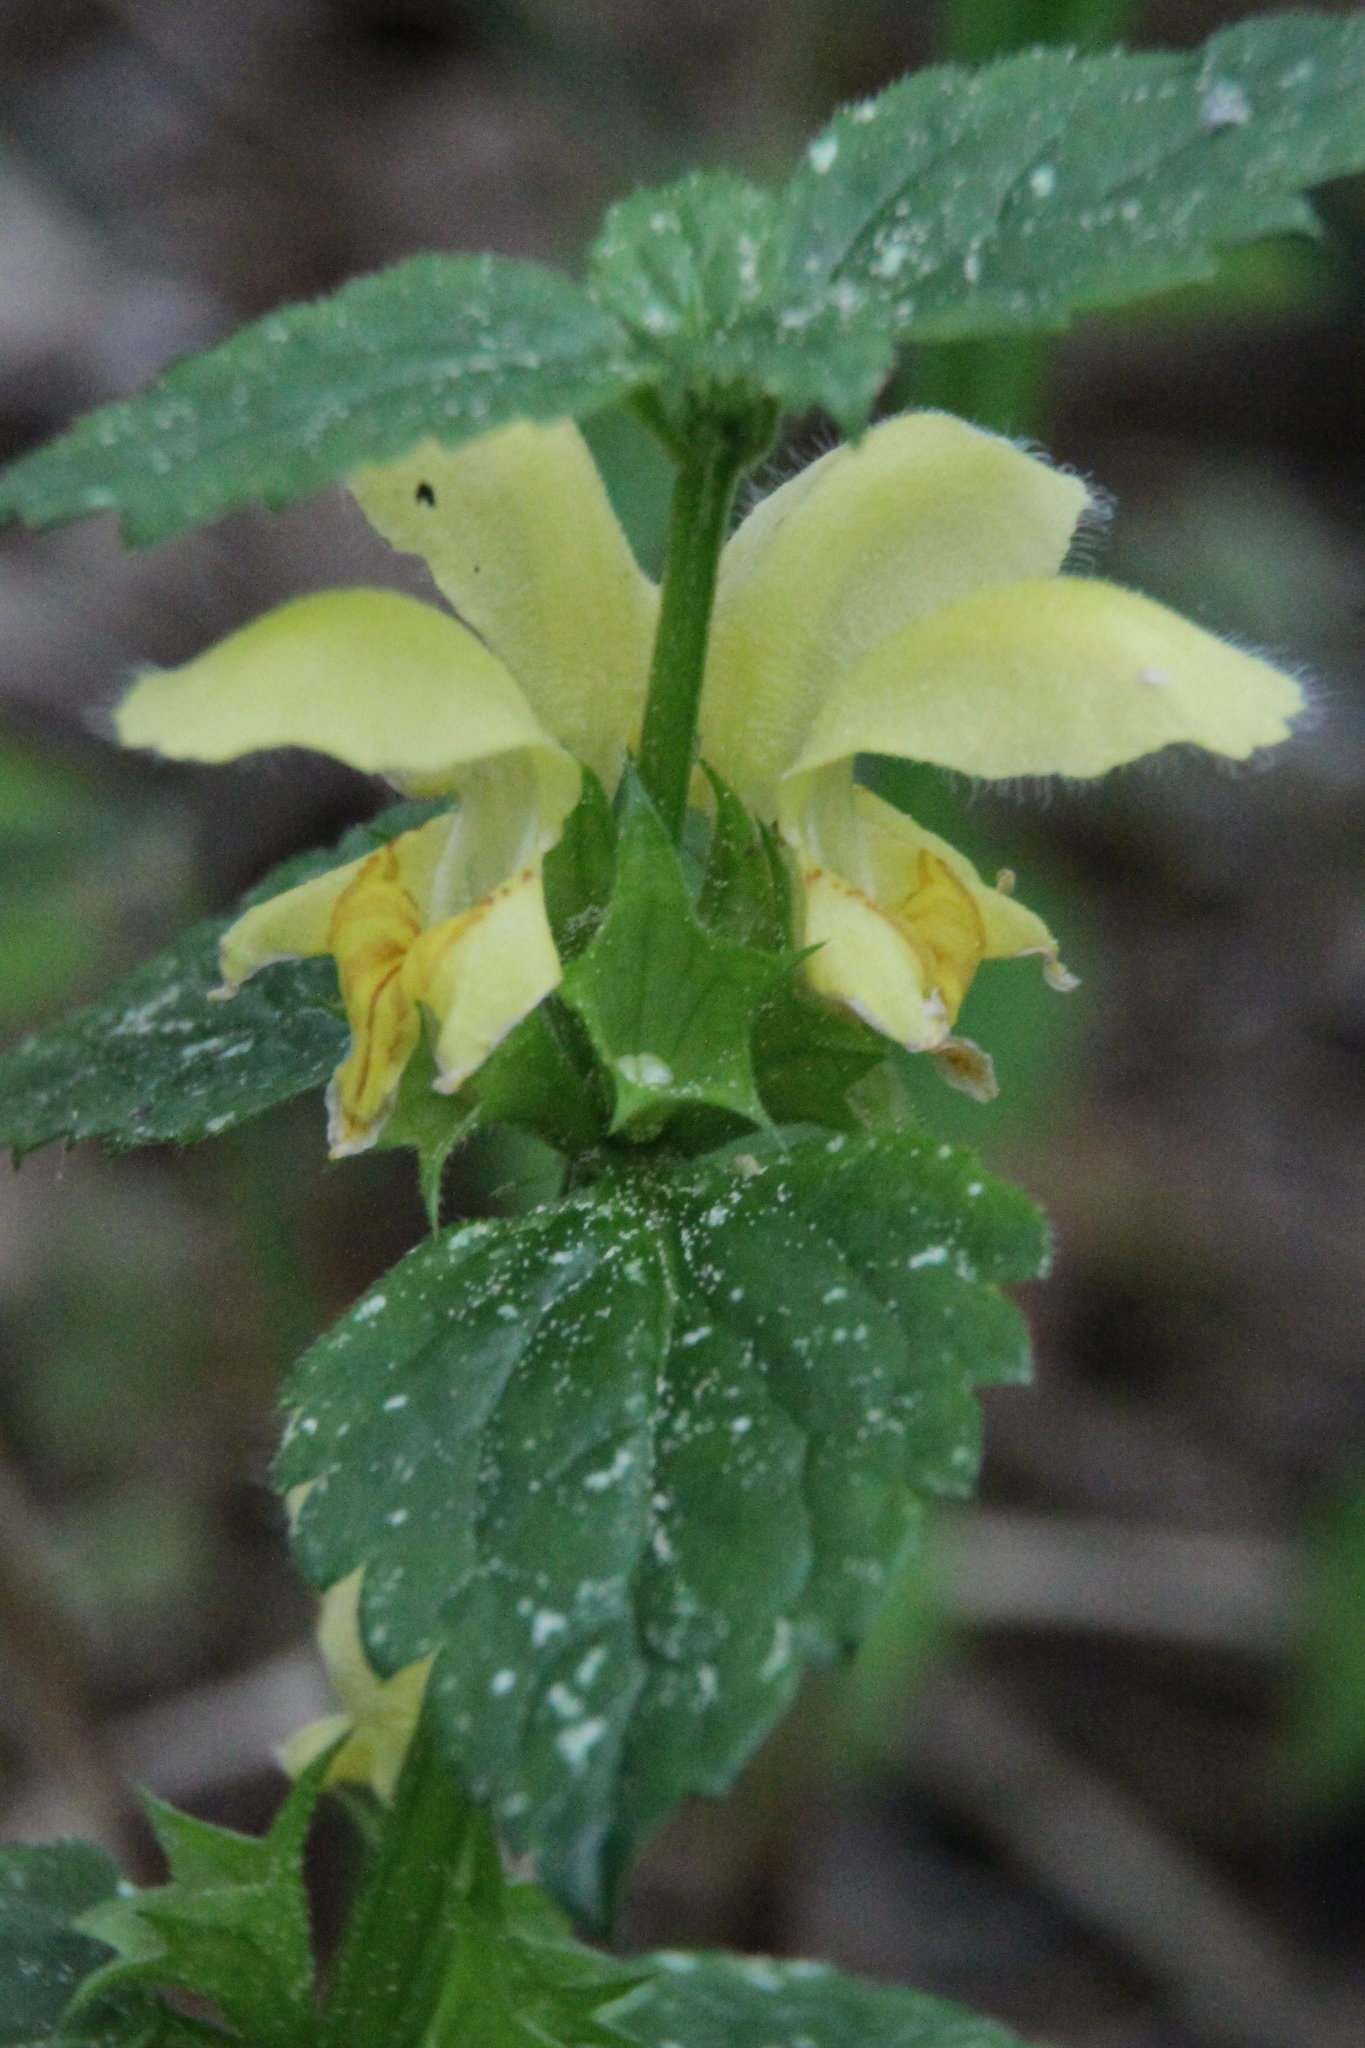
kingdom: Plantae
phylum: Tracheophyta
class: Magnoliopsida
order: Lamiales
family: Lamiaceae
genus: Lamium
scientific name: Lamium galeobdolon
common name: Yellow archangel
